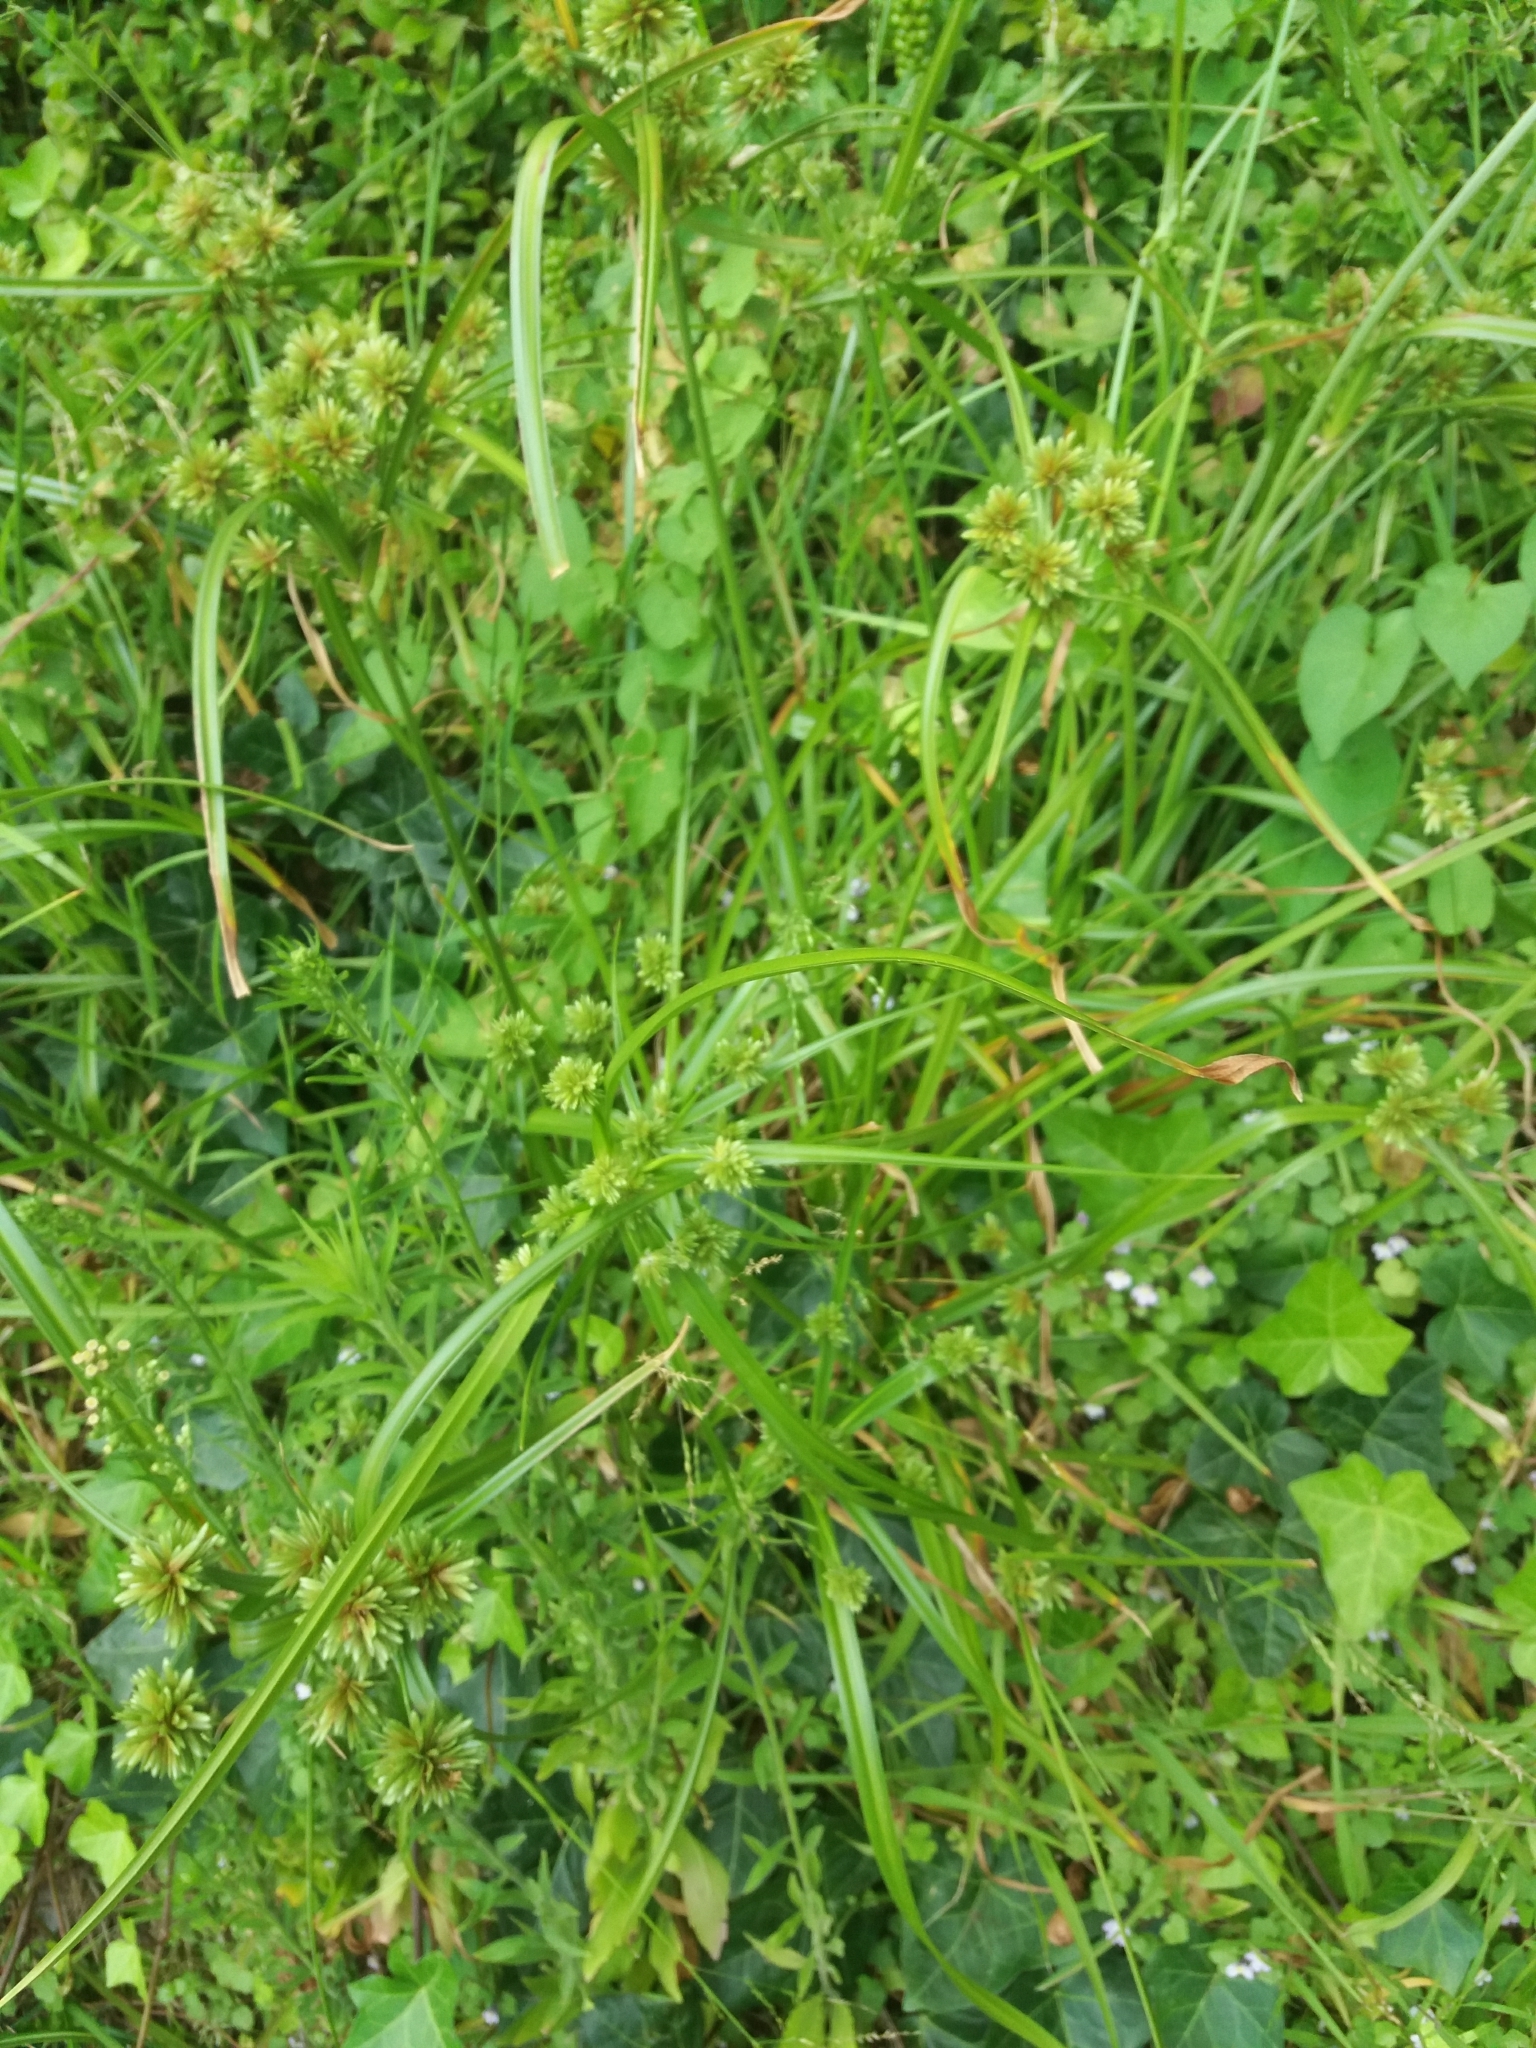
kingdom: Plantae
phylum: Tracheophyta
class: Liliopsida
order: Poales
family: Cyperaceae
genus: Cyperus
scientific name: Cyperus eragrostis
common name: Tall flatsedge
